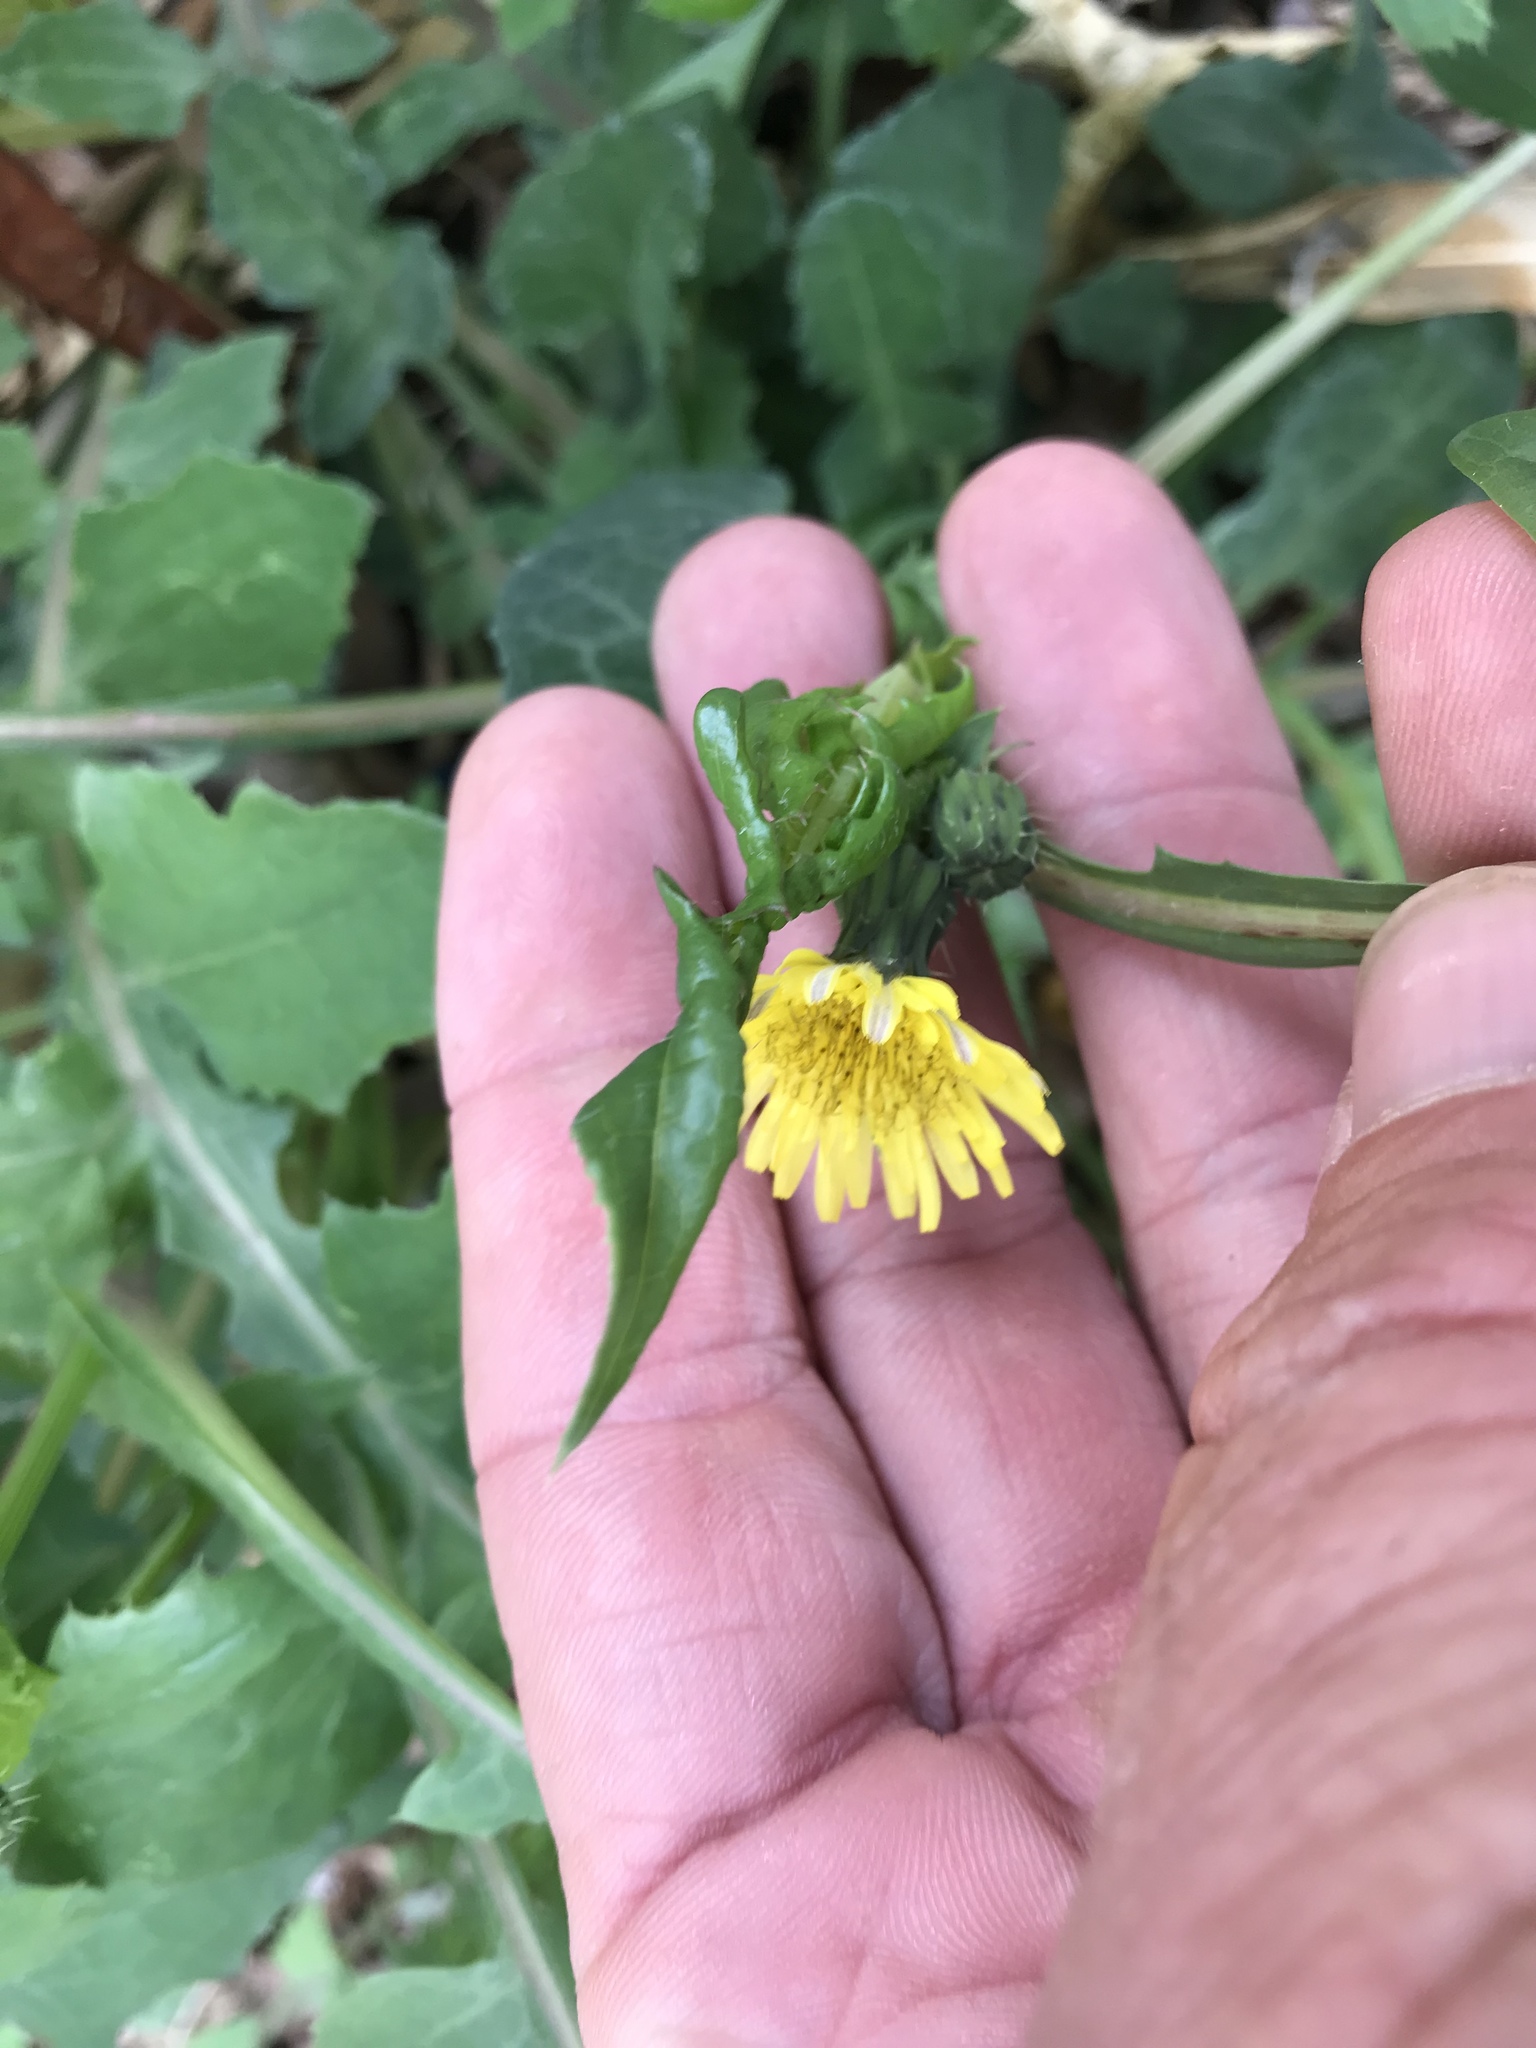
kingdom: Plantae
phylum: Tracheophyta
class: Magnoliopsida
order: Asterales
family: Asteraceae
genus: Sonchus
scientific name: Sonchus oleraceus
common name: Common sowthistle
